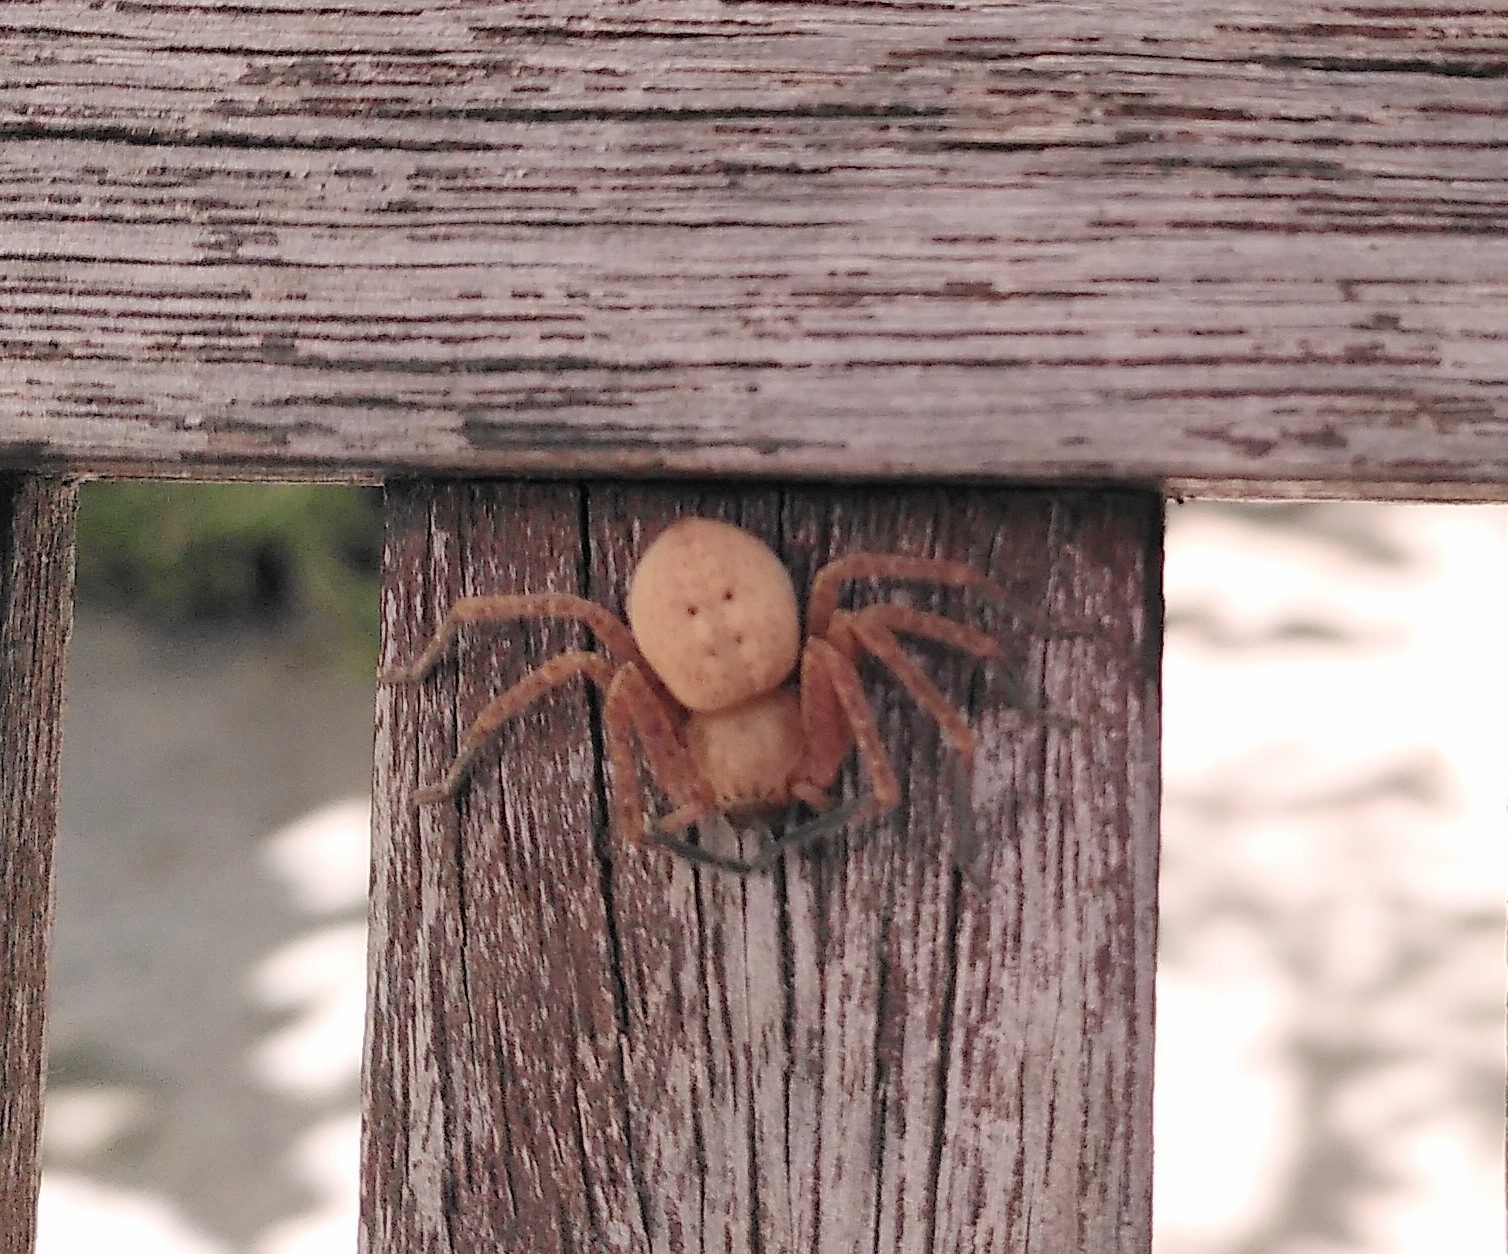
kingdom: Animalia
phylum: Arthropoda
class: Arachnida
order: Araneae
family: Sparassidae
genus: Olios
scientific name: Olios argelasius
